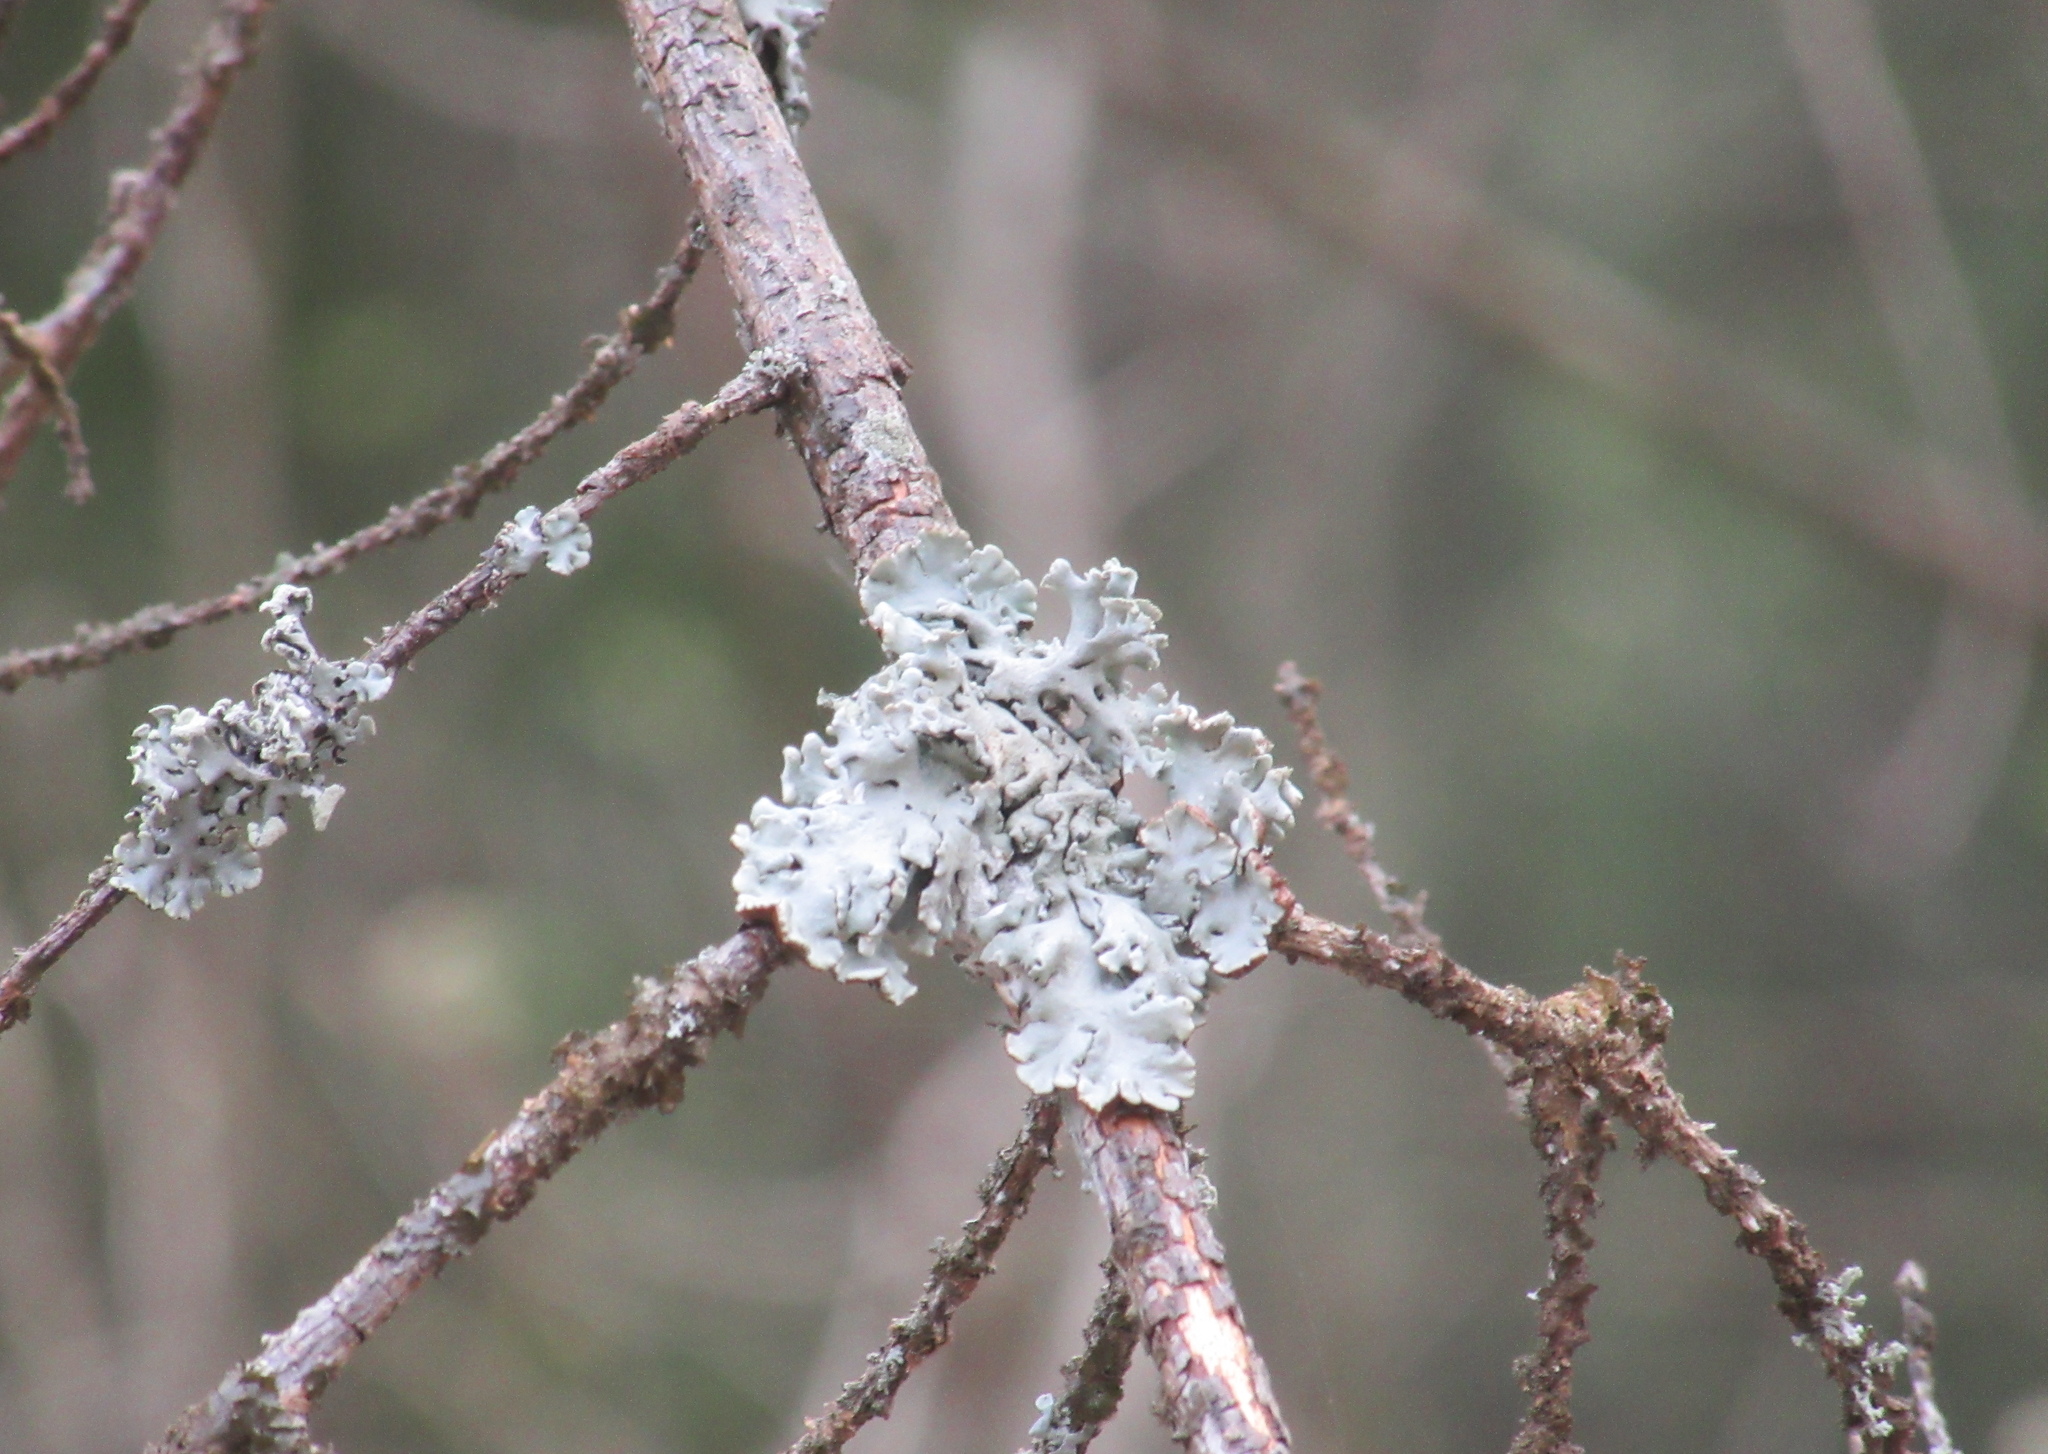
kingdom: Fungi
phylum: Ascomycota
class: Lecanoromycetes
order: Lecanorales
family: Parmeliaceae
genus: Hypogymnia
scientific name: Hypogymnia physodes
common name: Dark crottle
